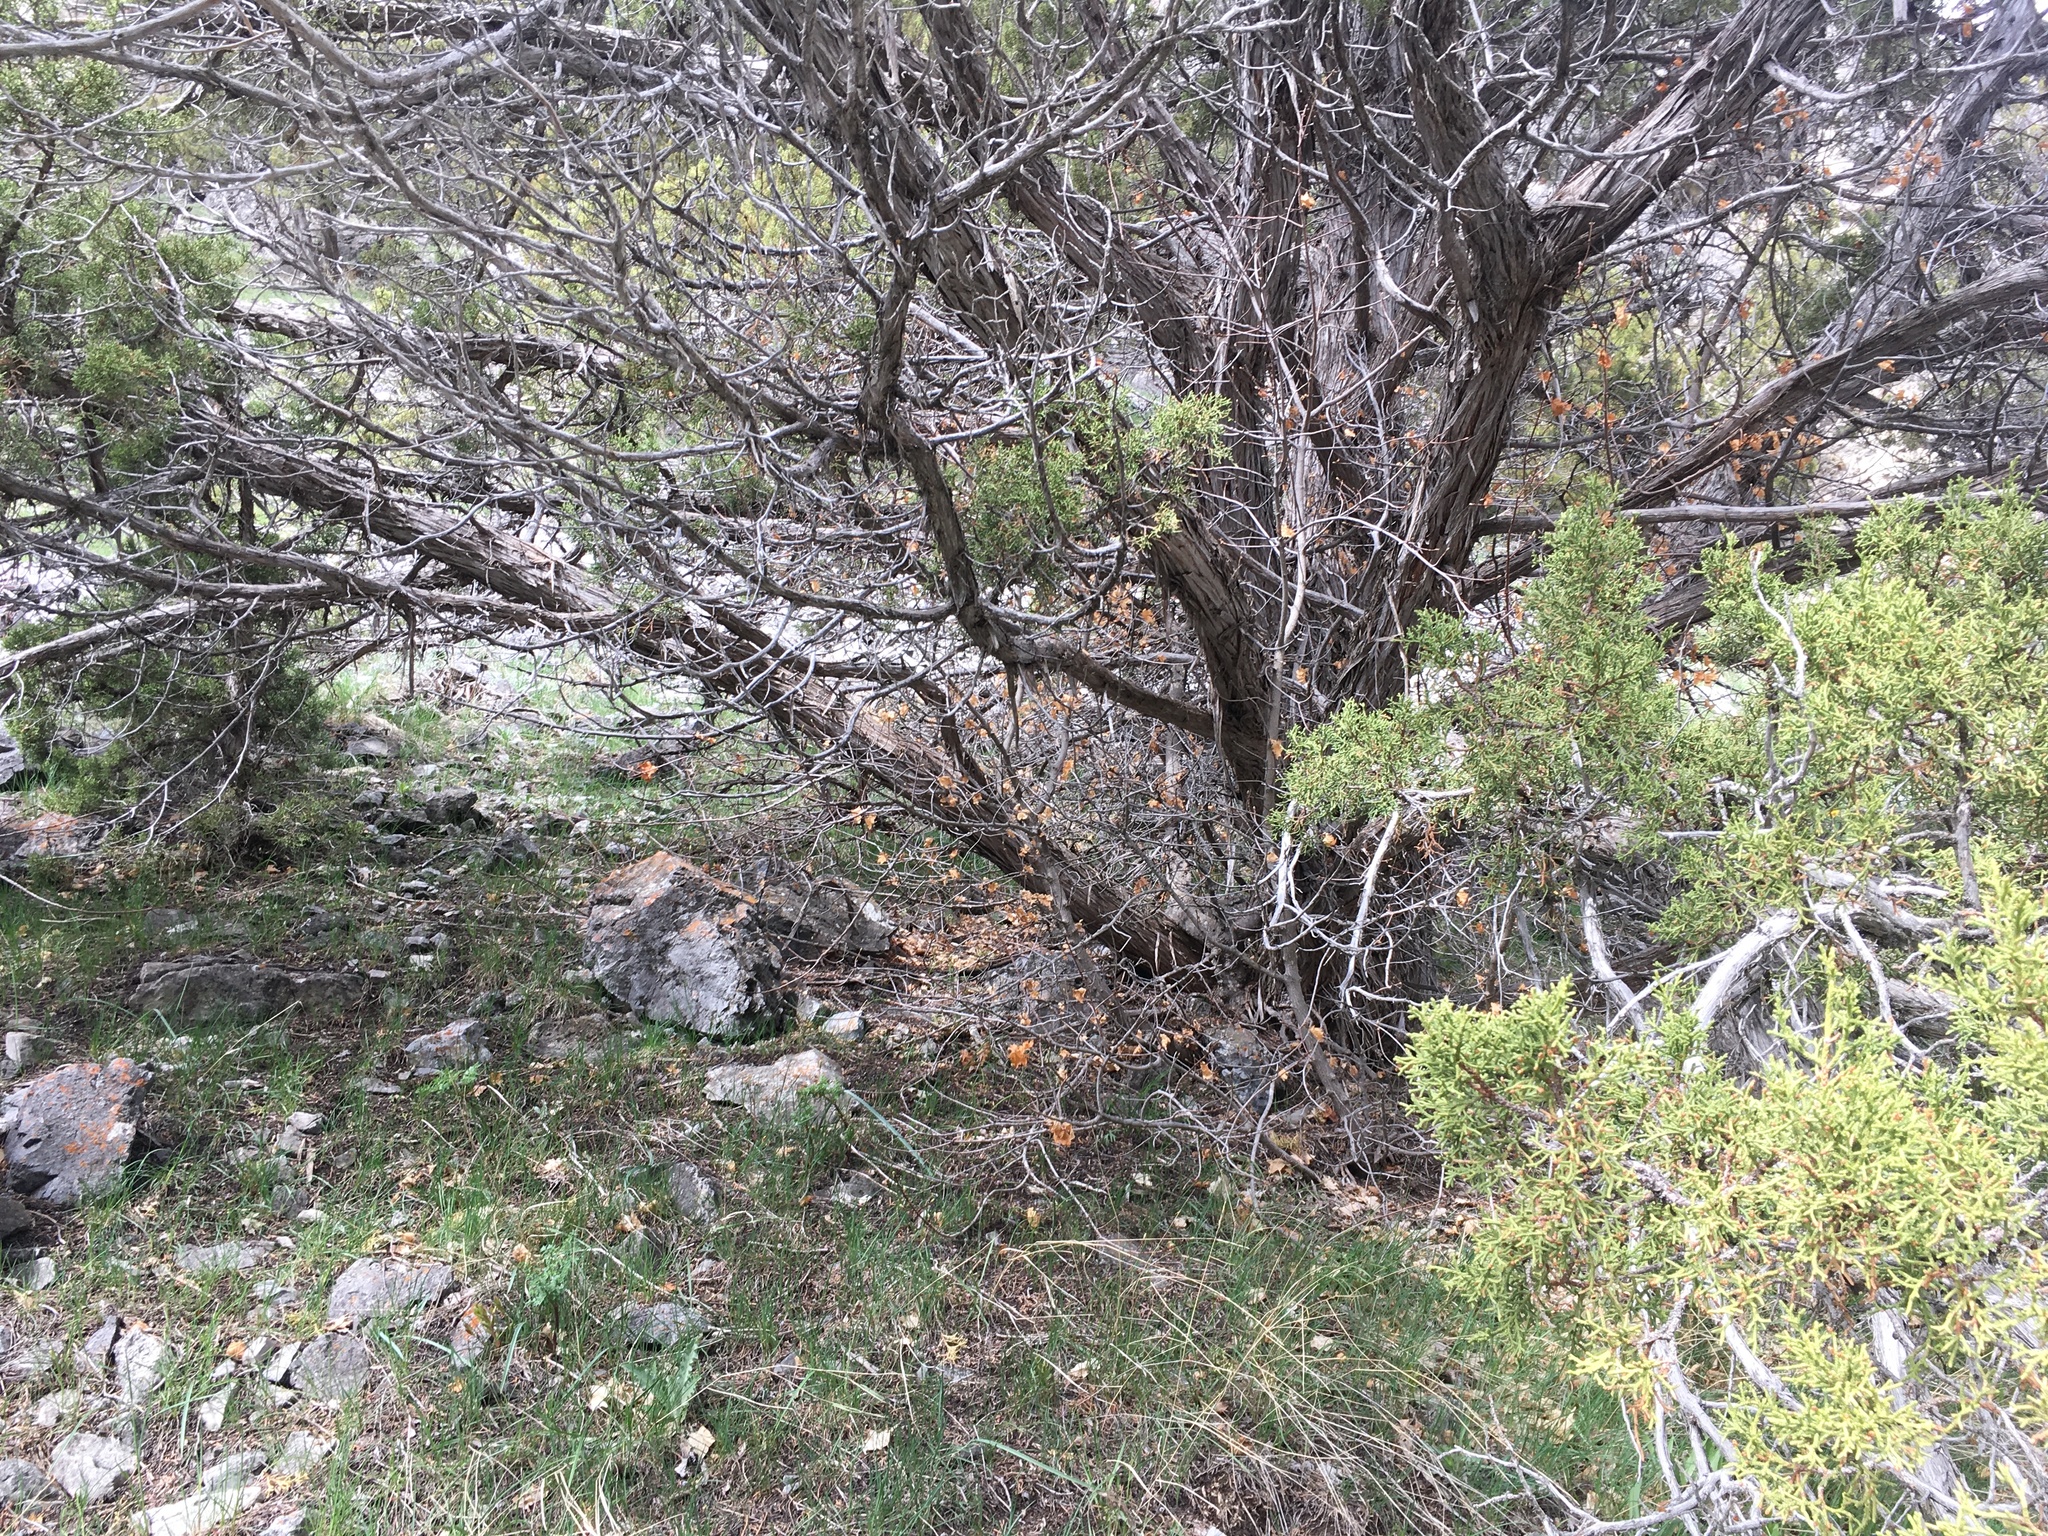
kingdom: Plantae
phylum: Tracheophyta
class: Pinopsida
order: Pinales
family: Cupressaceae
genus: Juniperus
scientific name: Juniperus osteosperma
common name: Utah juniper
